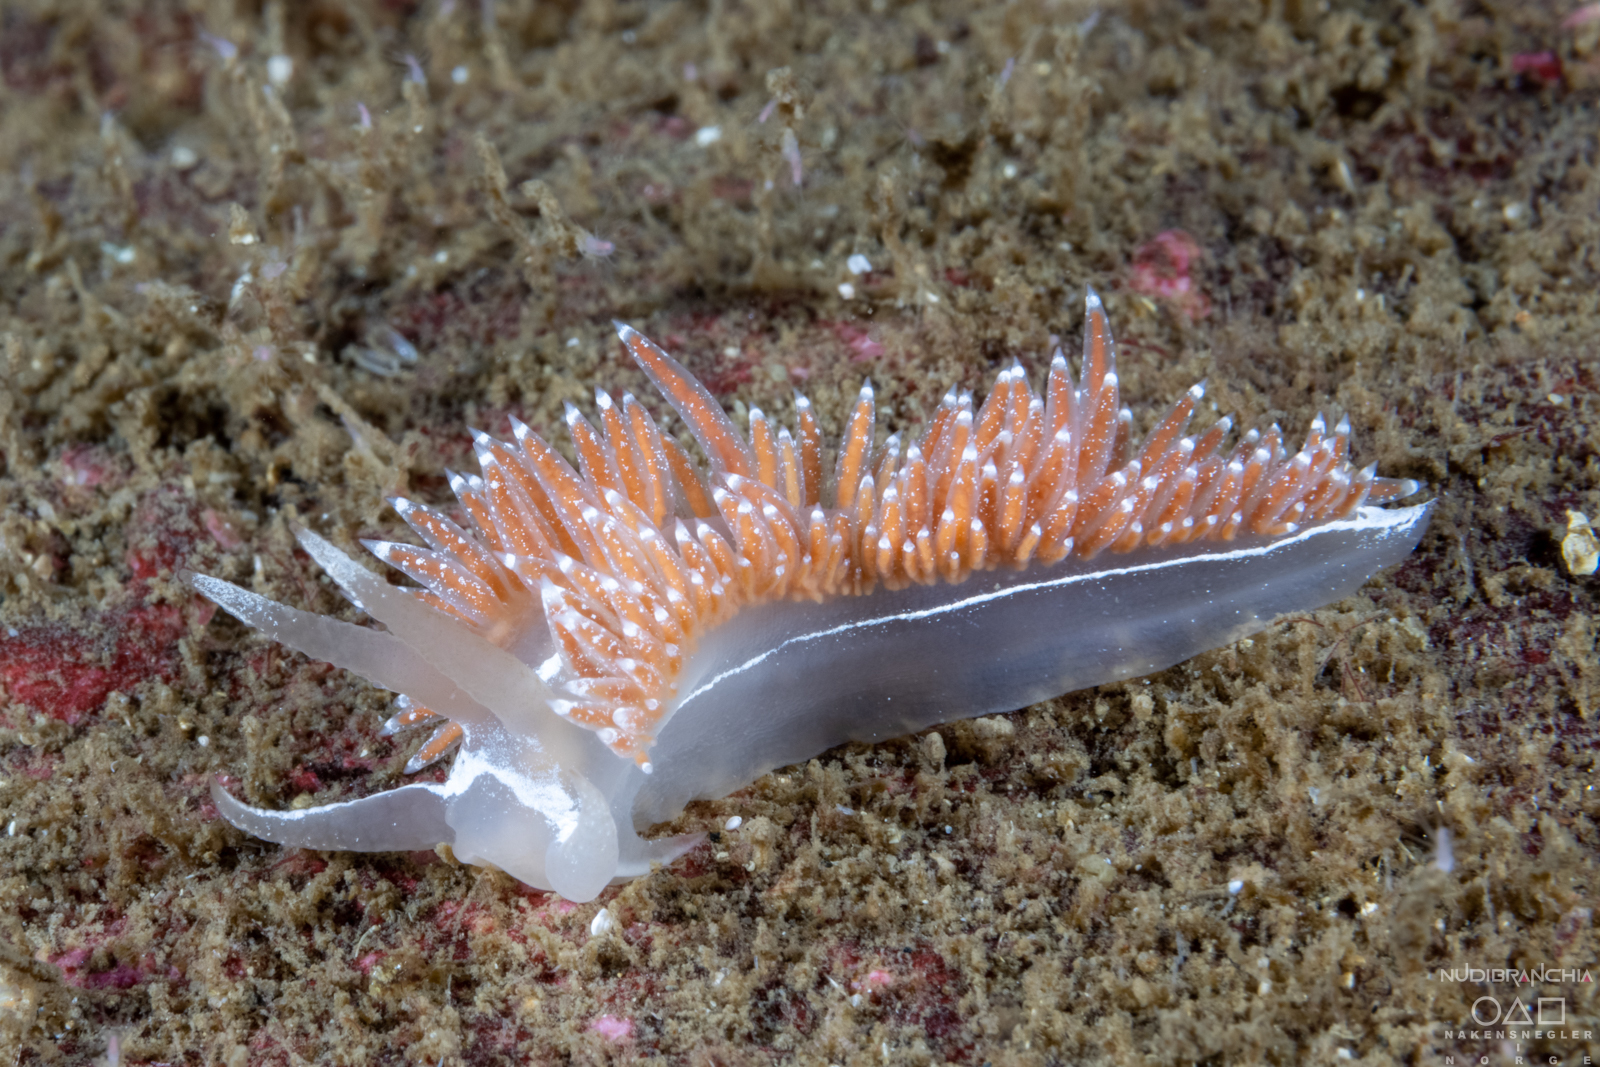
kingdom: Animalia
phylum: Mollusca
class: Gastropoda
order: Nudibranchia
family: Coryphellidae
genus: Coryphella
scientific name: Coryphella monicae
